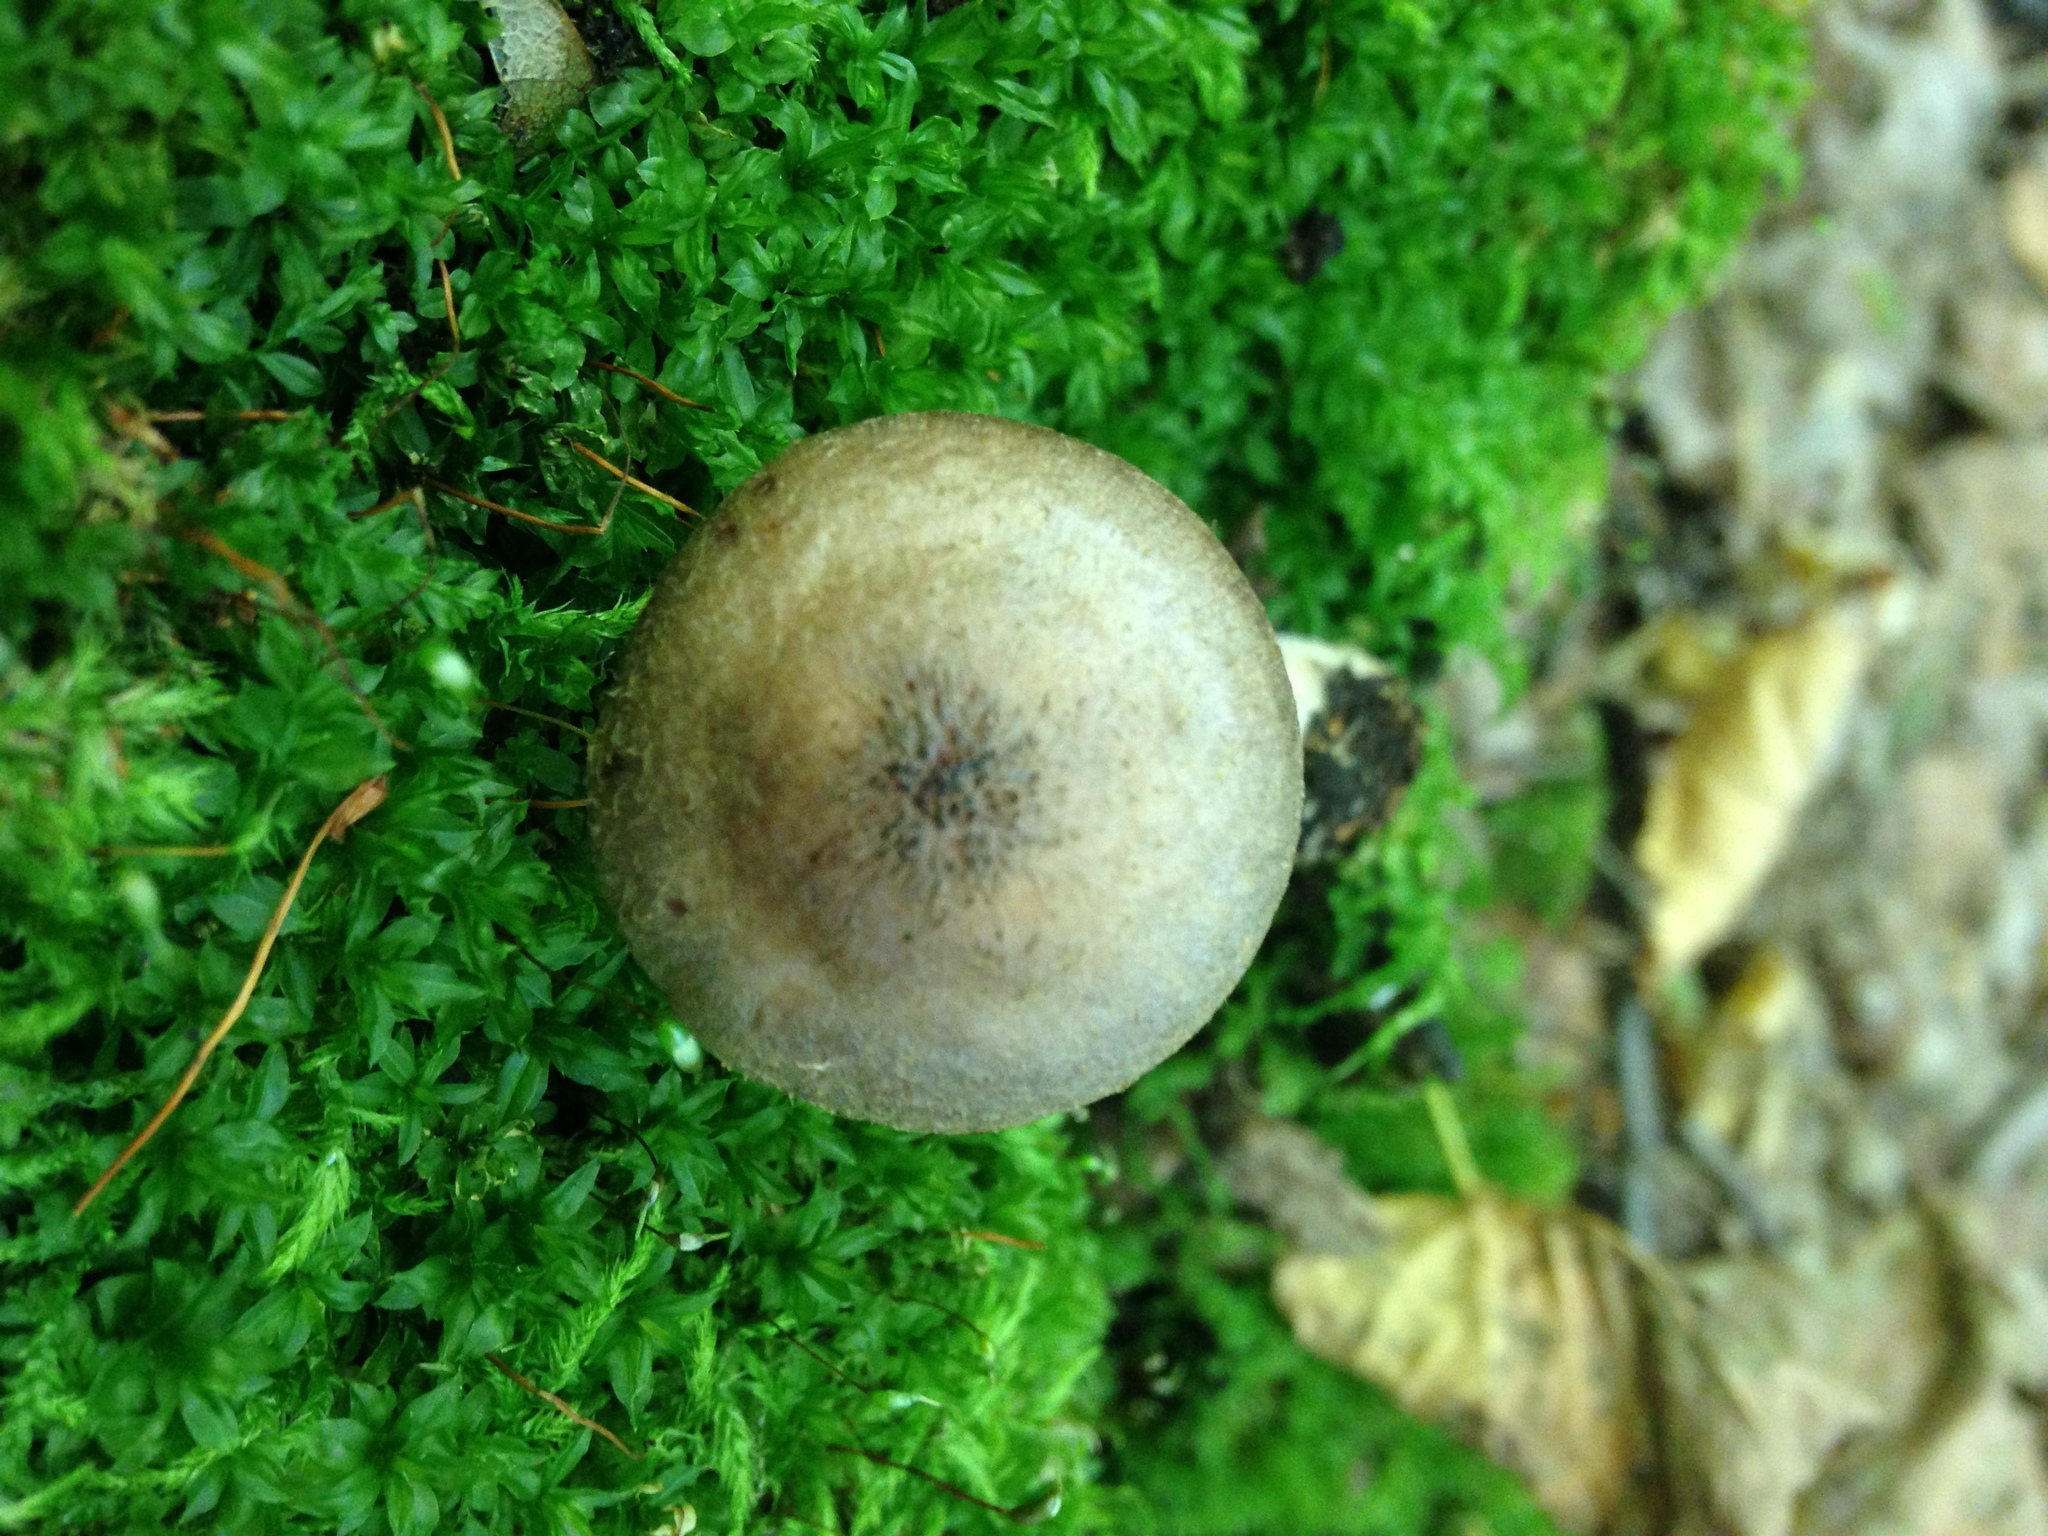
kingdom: Fungi
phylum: Basidiomycota
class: Agaricomycetes
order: Agaricales
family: Physalacriaceae
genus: Armillaria
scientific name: Armillaria gallica
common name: Bulbous honey fungus
